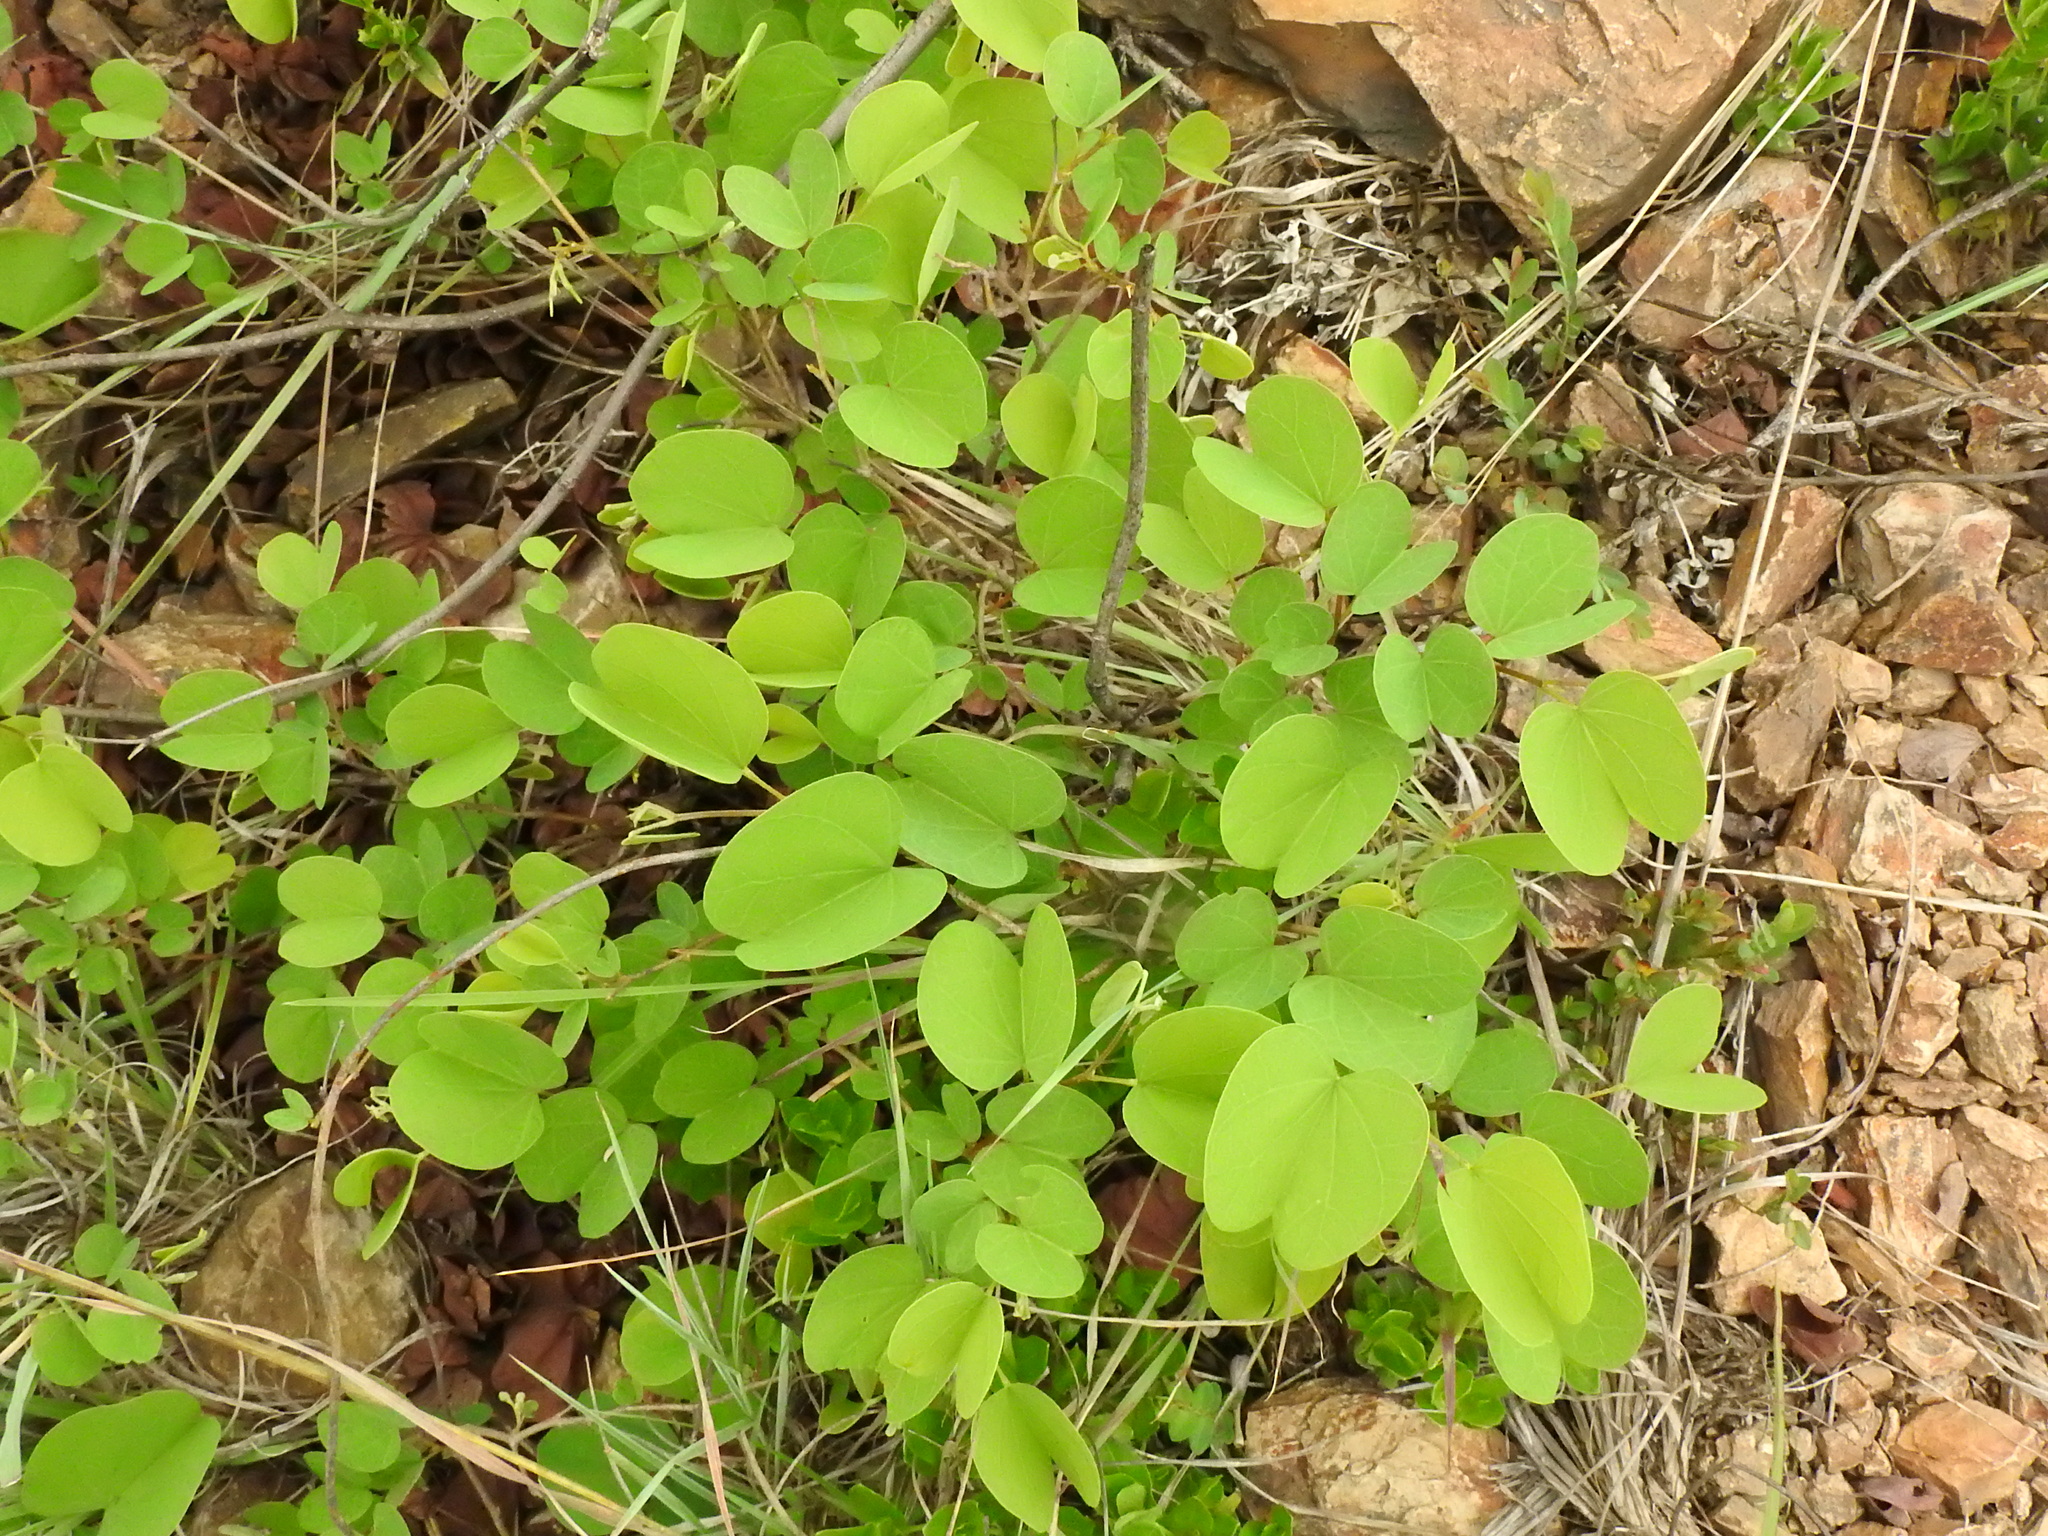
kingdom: Plantae
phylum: Tracheophyta
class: Magnoliopsida
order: Fabales
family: Fabaceae
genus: Bauhinia
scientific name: Bauhinia galpinii
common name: African plume
